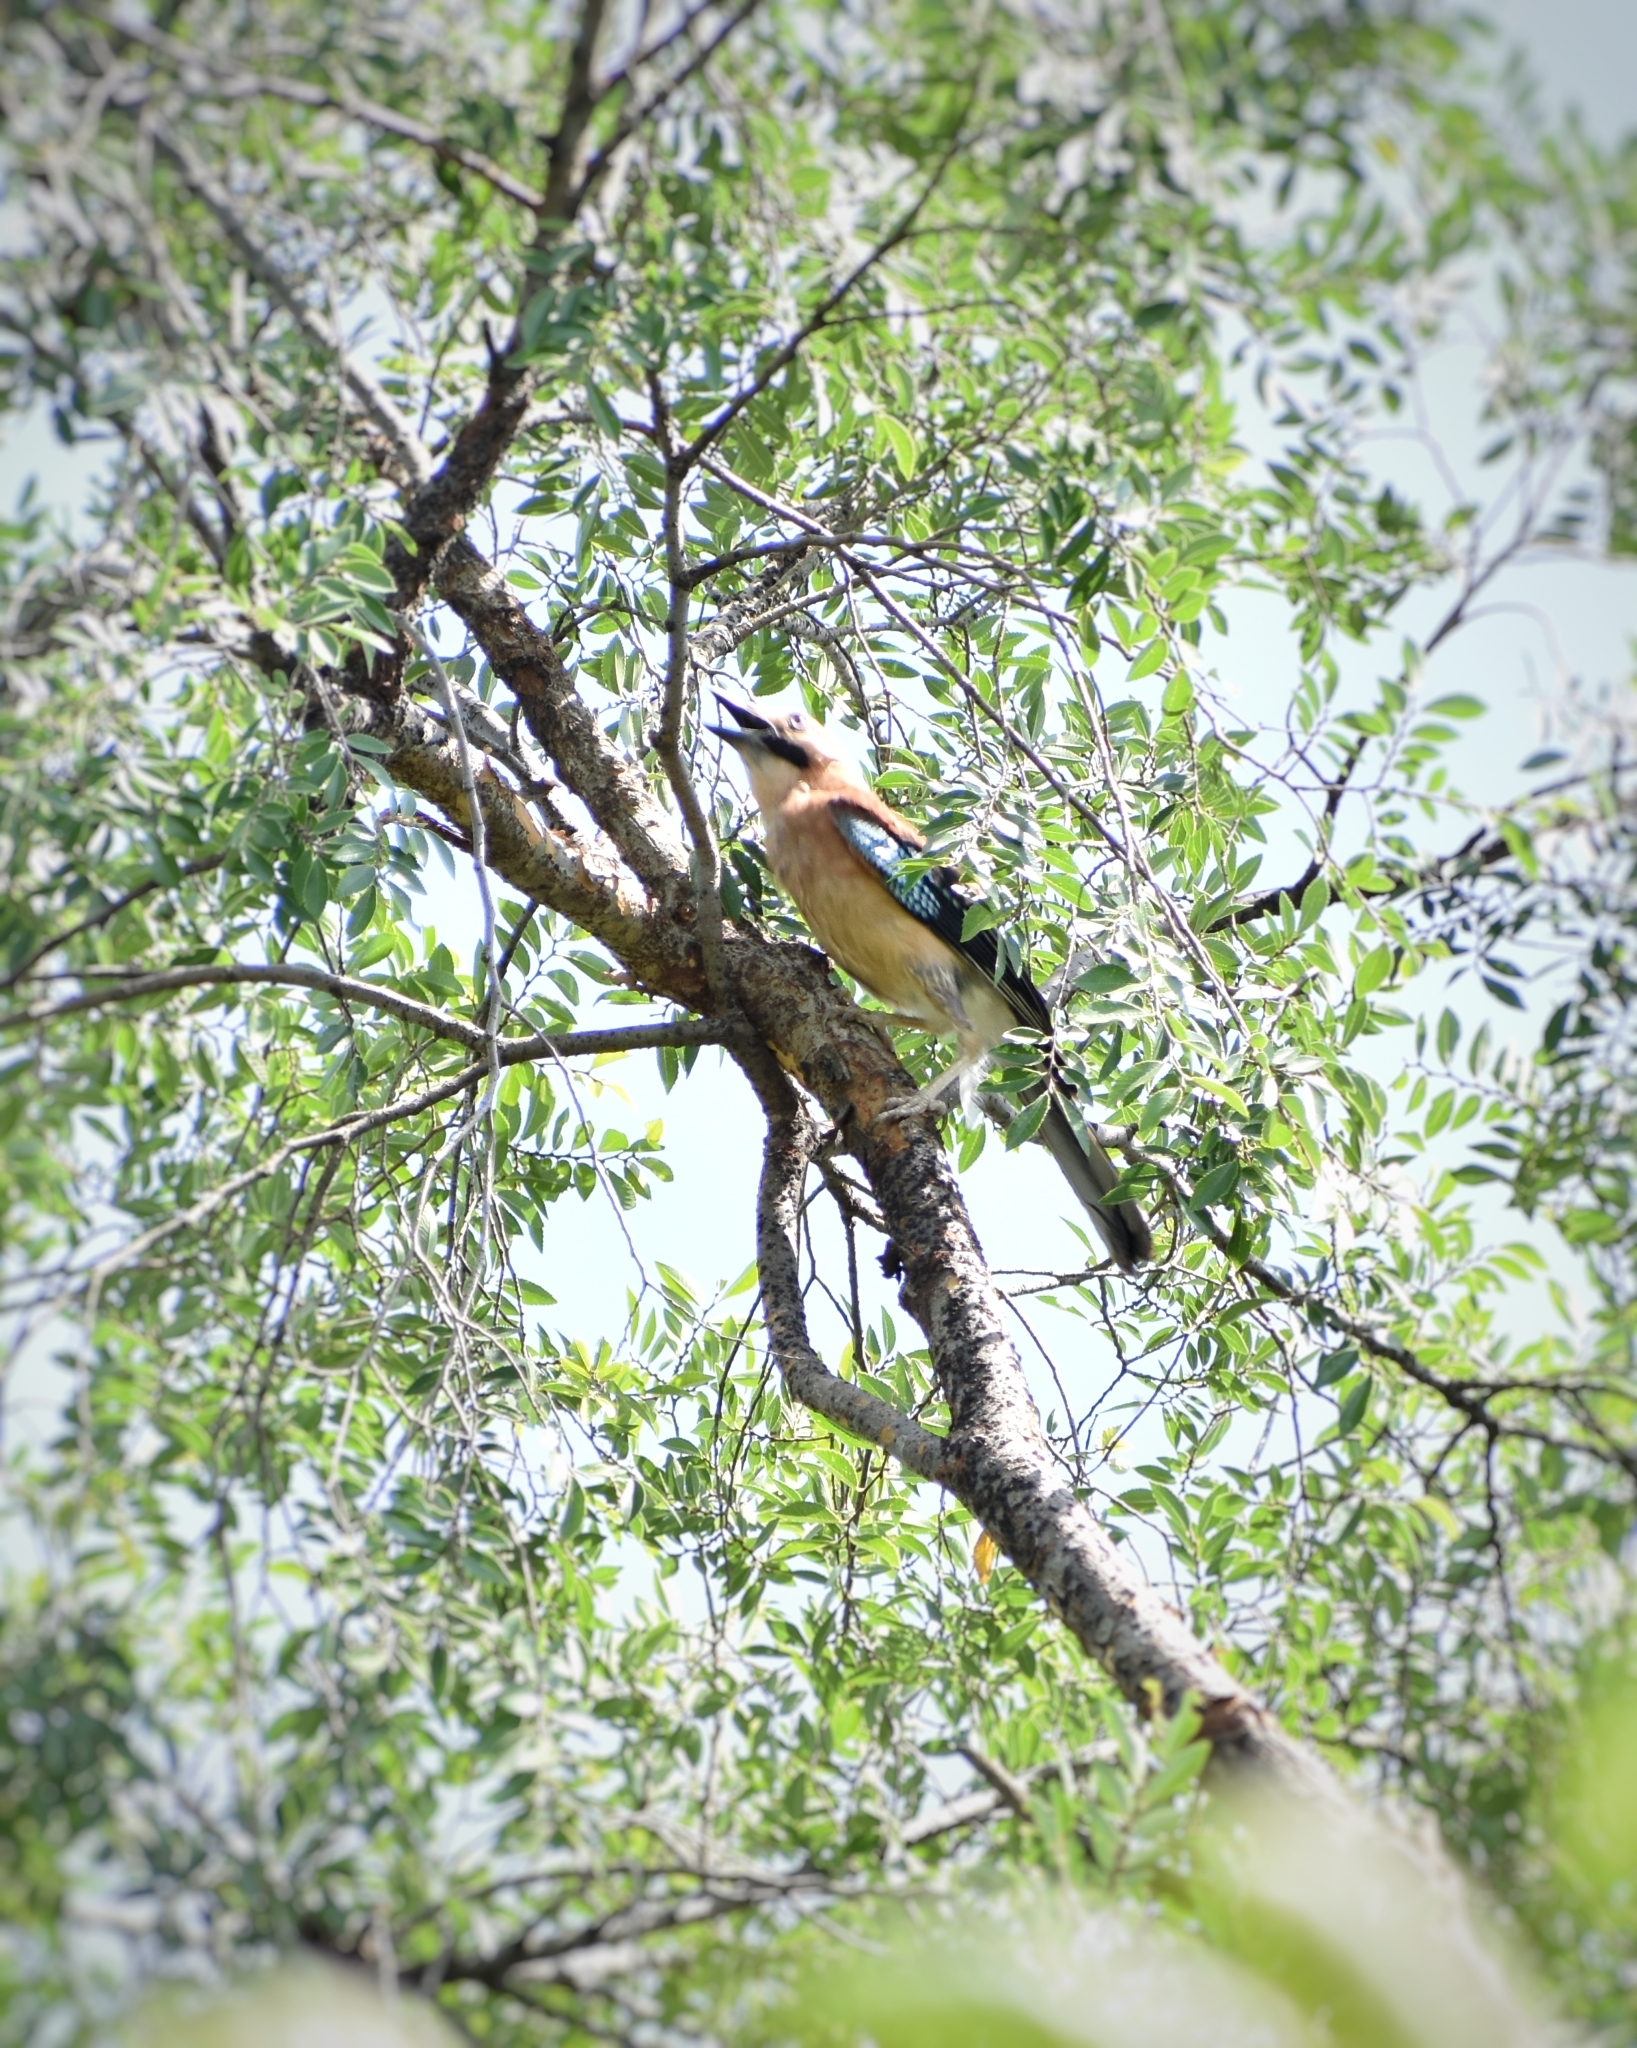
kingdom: Animalia
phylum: Chordata
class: Aves
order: Passeriformes
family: Corvidae
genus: Garrulus
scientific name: Garrulus glandarius
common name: Eurasian jay
